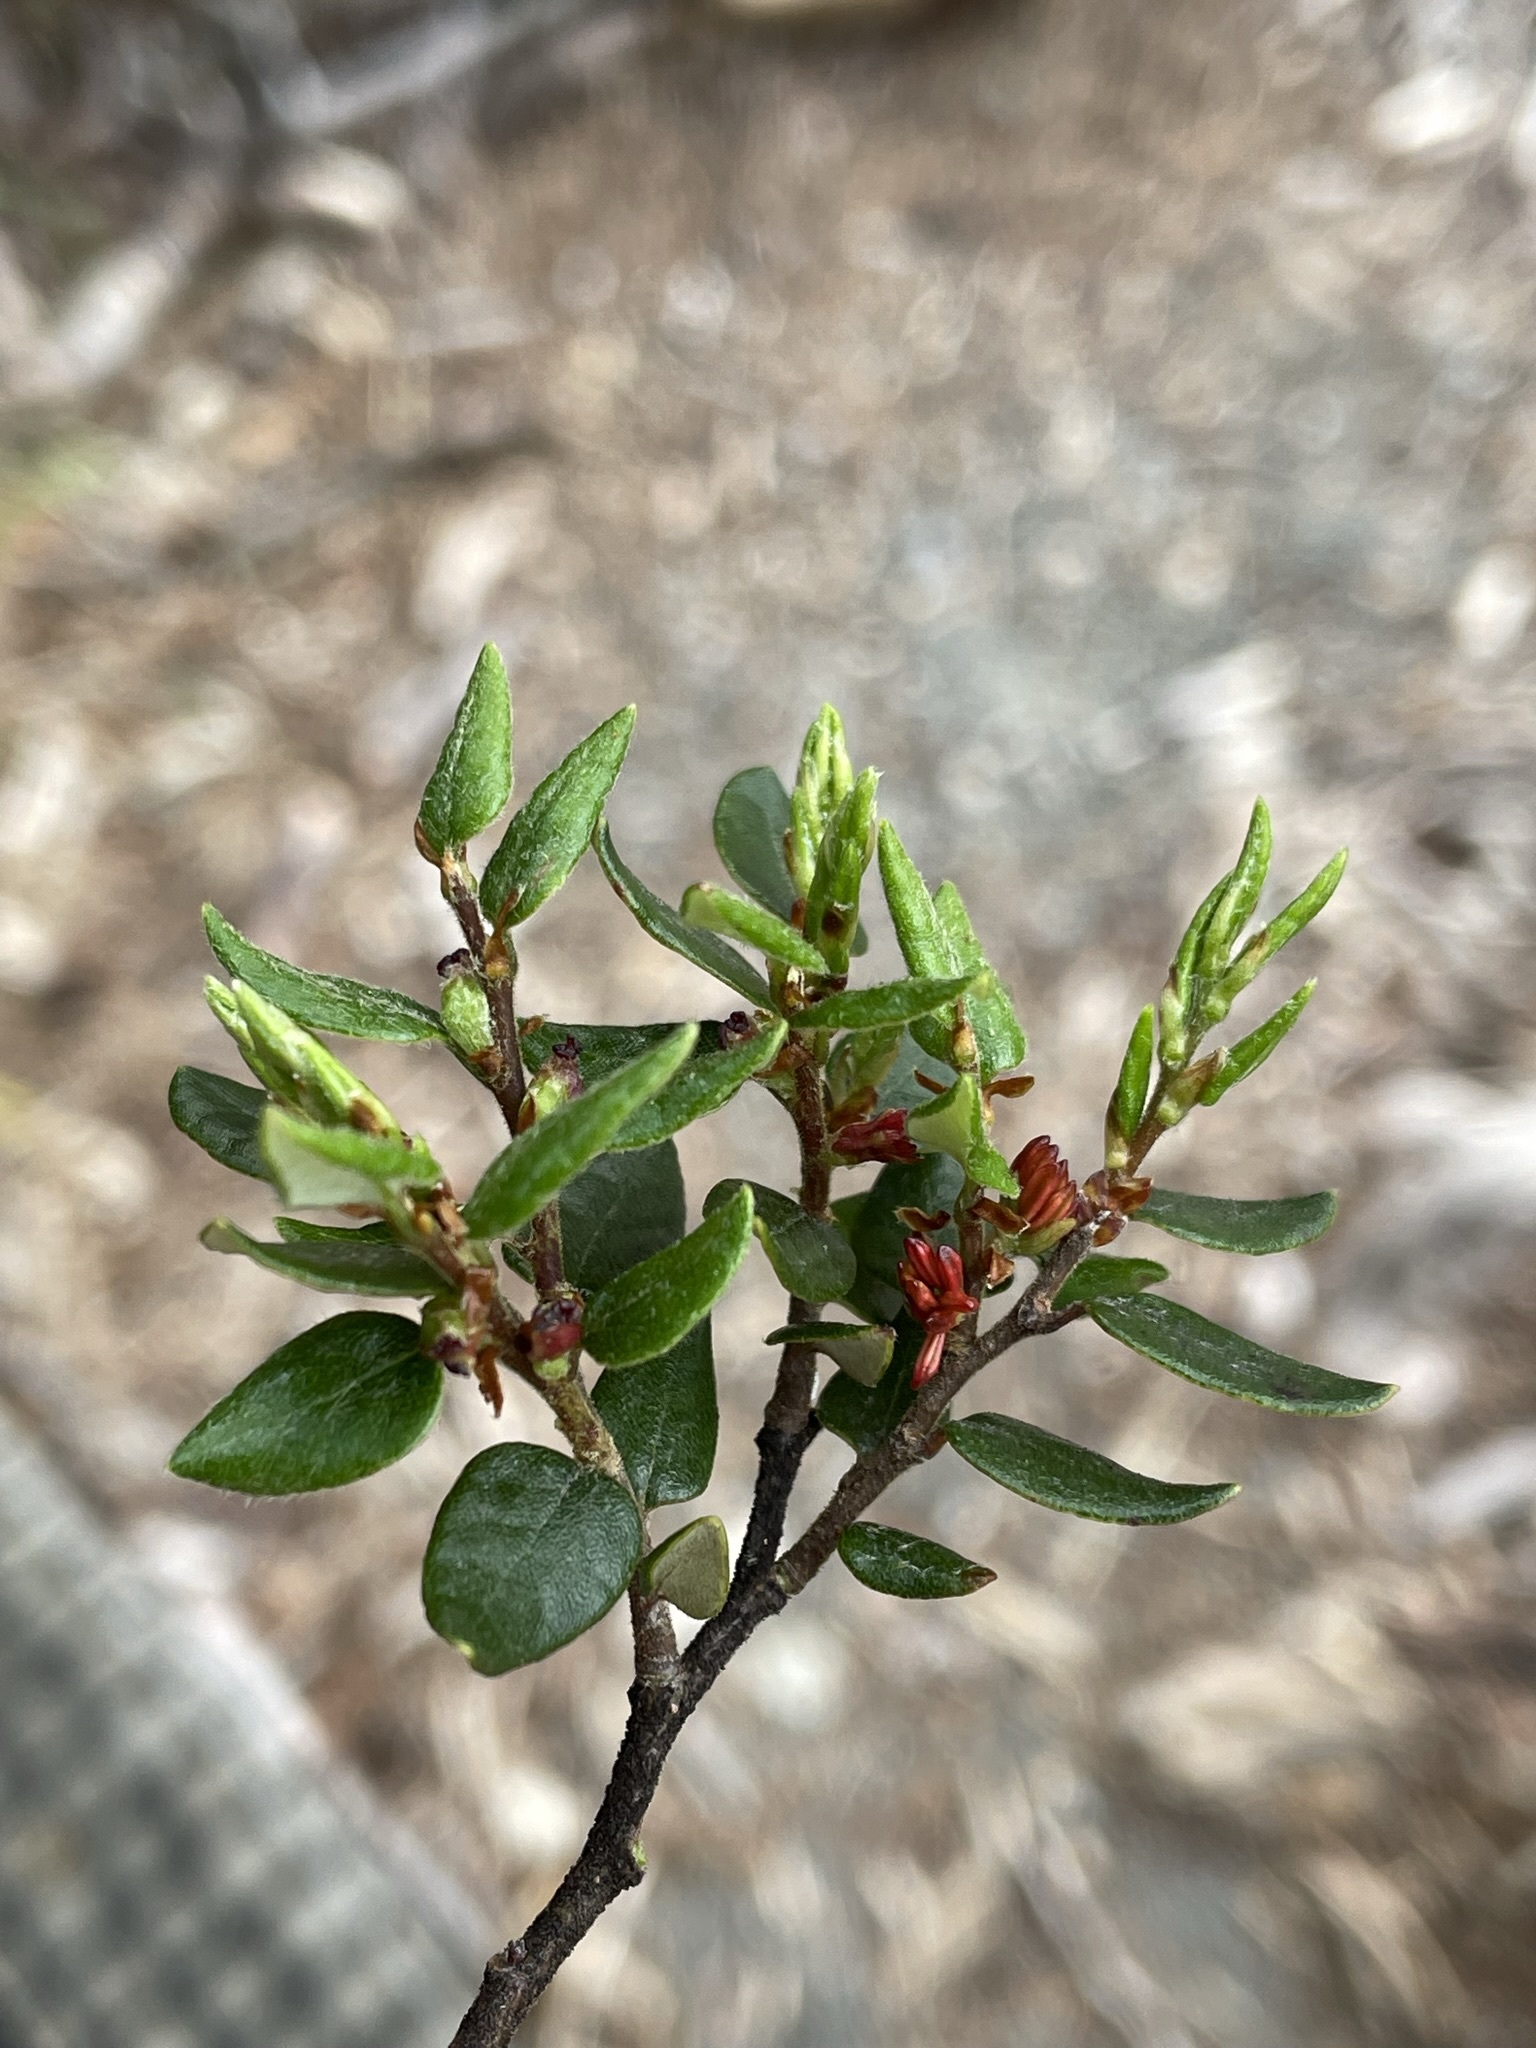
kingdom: Plantae
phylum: Tracheophyta
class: Magnoliopsida
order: Fagales
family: Nothofagaceae
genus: Nothofagus
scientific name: Nothofagus cliffortioides
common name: Mountain beech
